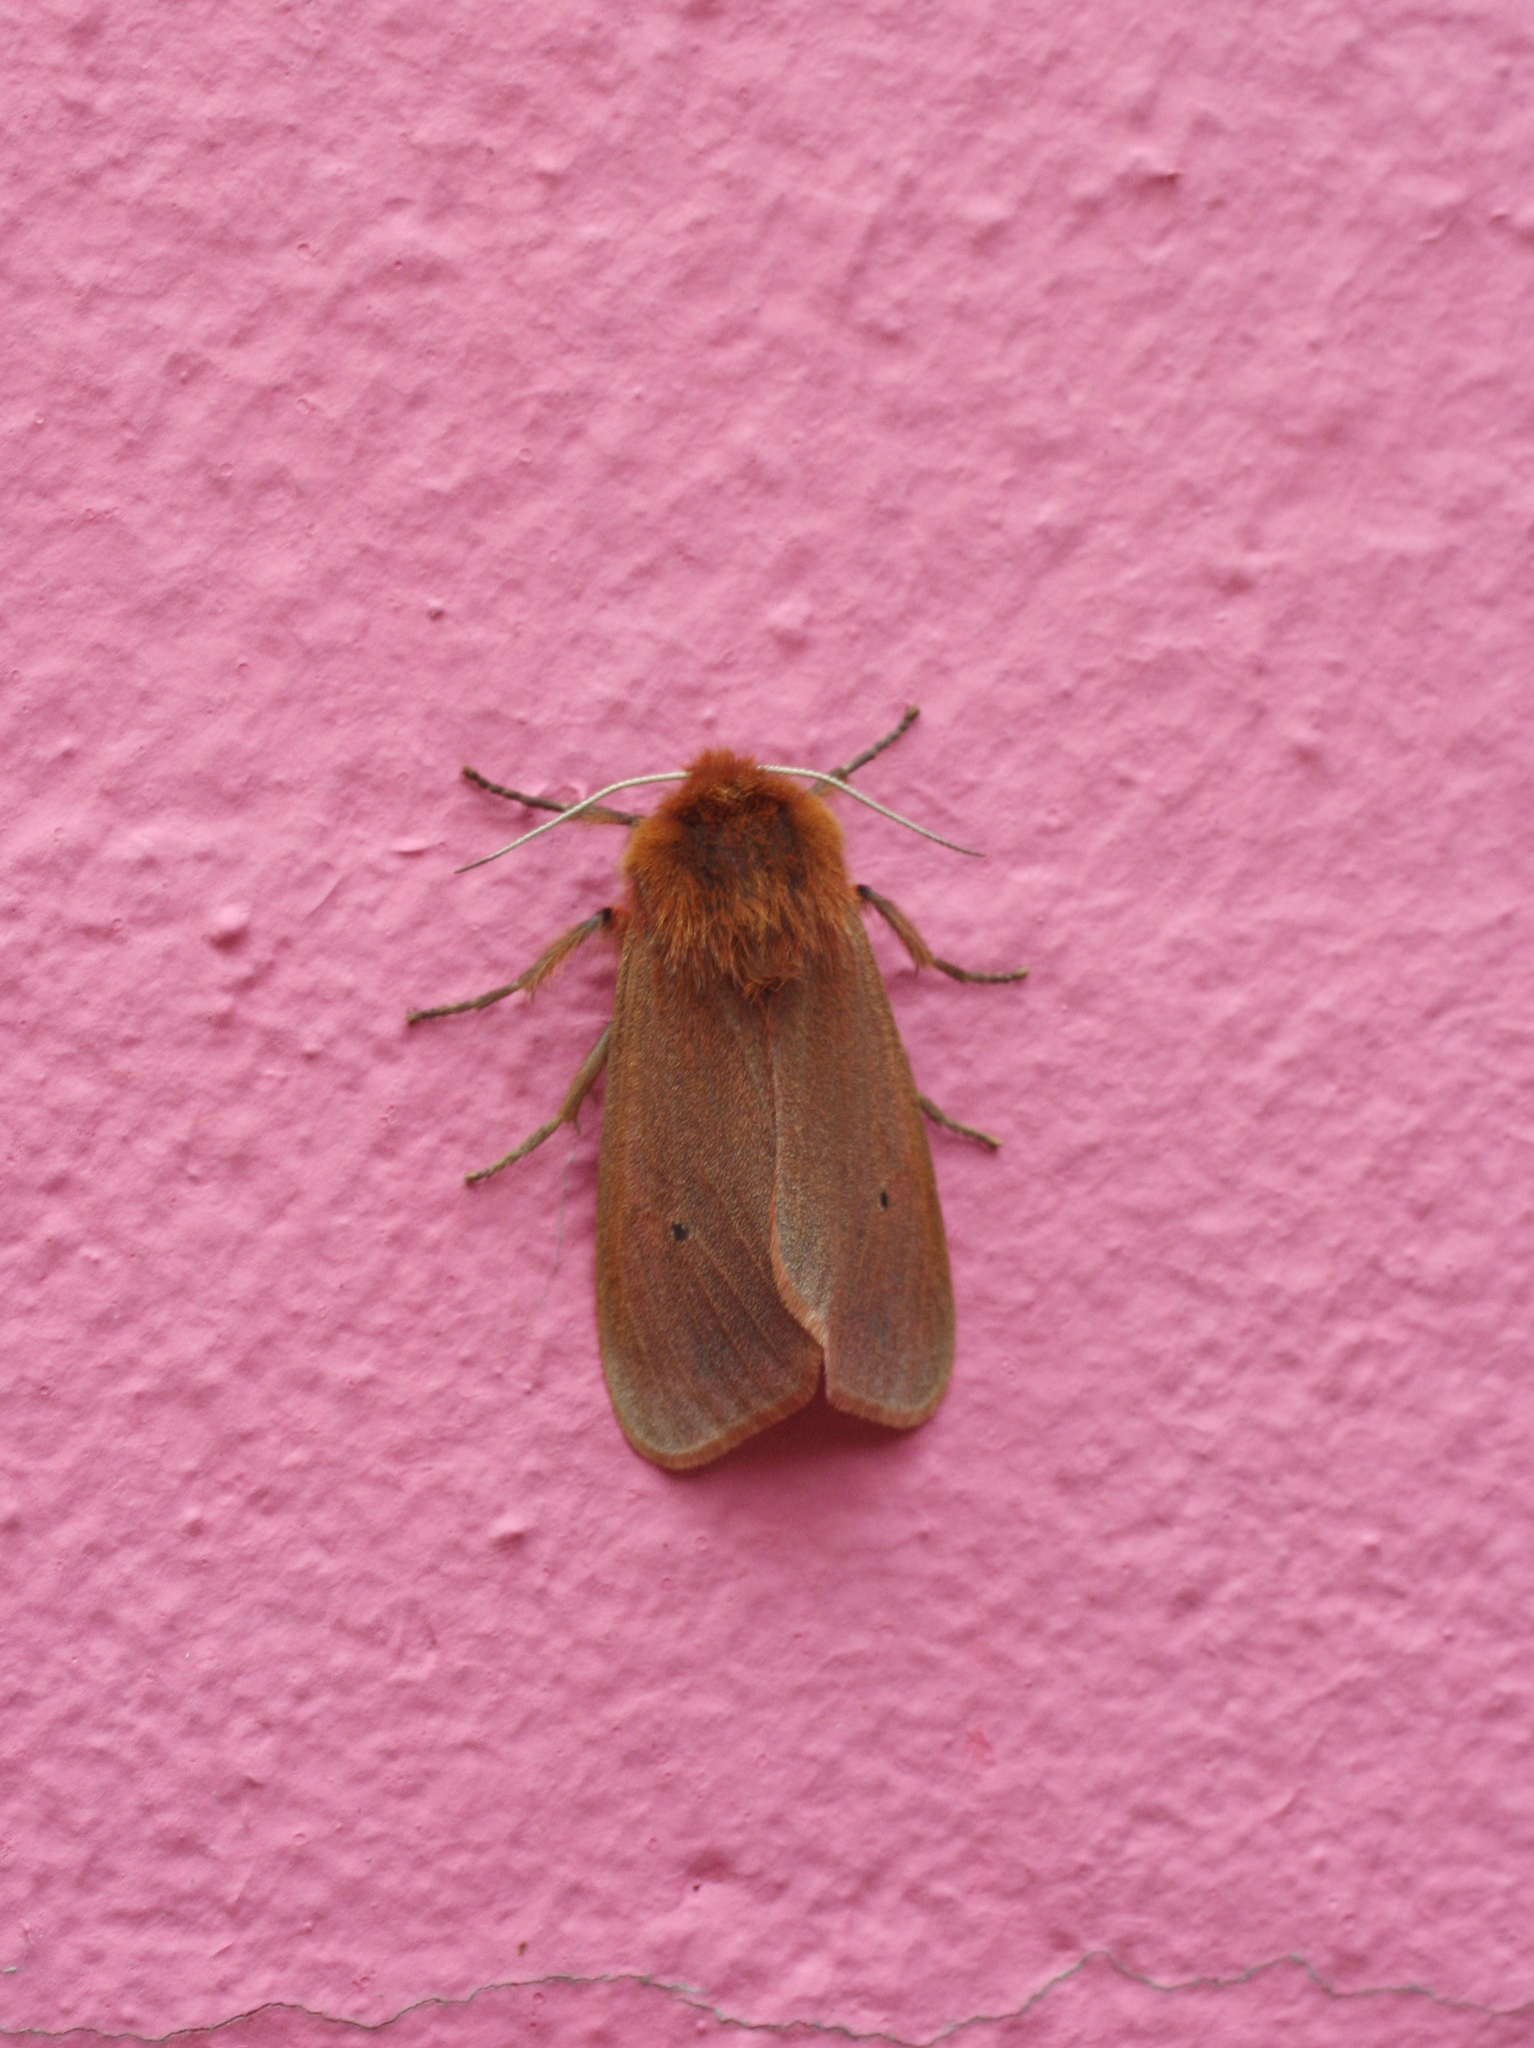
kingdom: Animalia
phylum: Arthropoda
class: Insecta
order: Lepidoptera
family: Erebidae
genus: Phragmatobia
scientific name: Phragmatobia fuliginosa
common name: Ruby tiger
